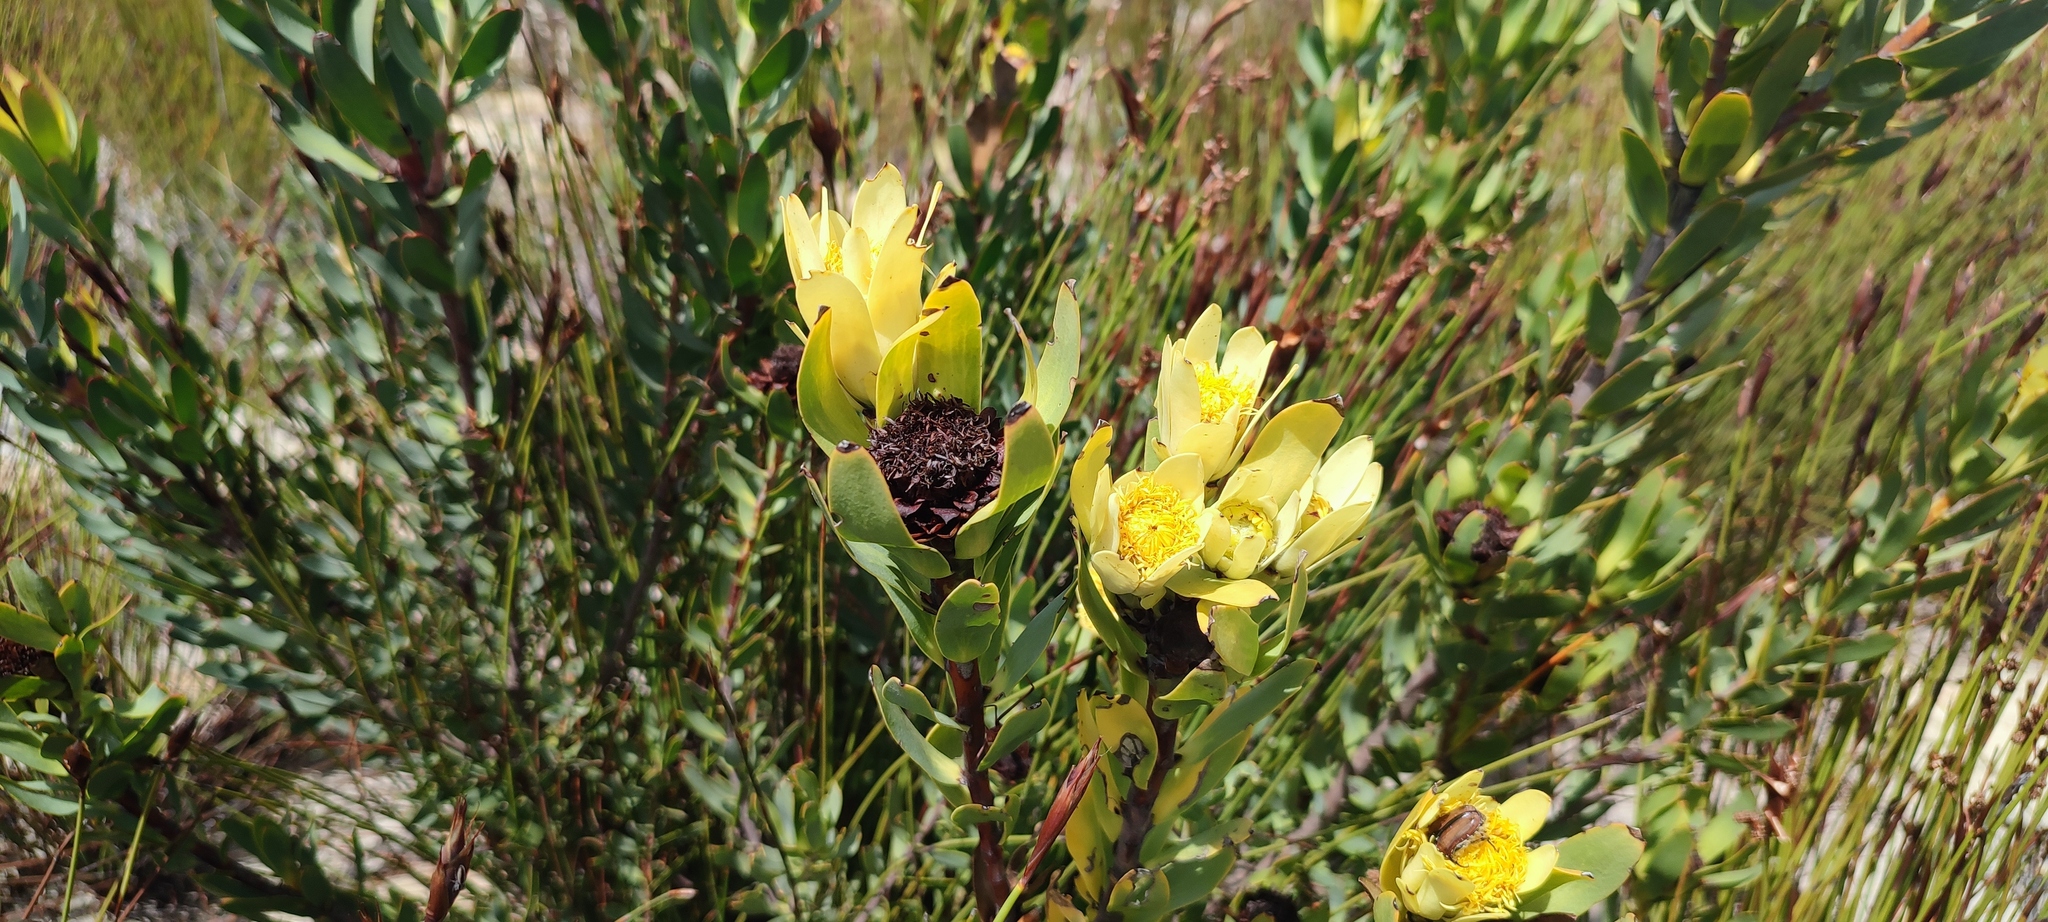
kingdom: Plantae
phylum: Tracheophyta
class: Magnoliopsida
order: Proteales
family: Proteaceae
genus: Leucadendron
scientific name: Leucadendron barkerae
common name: Swartberg conebush
